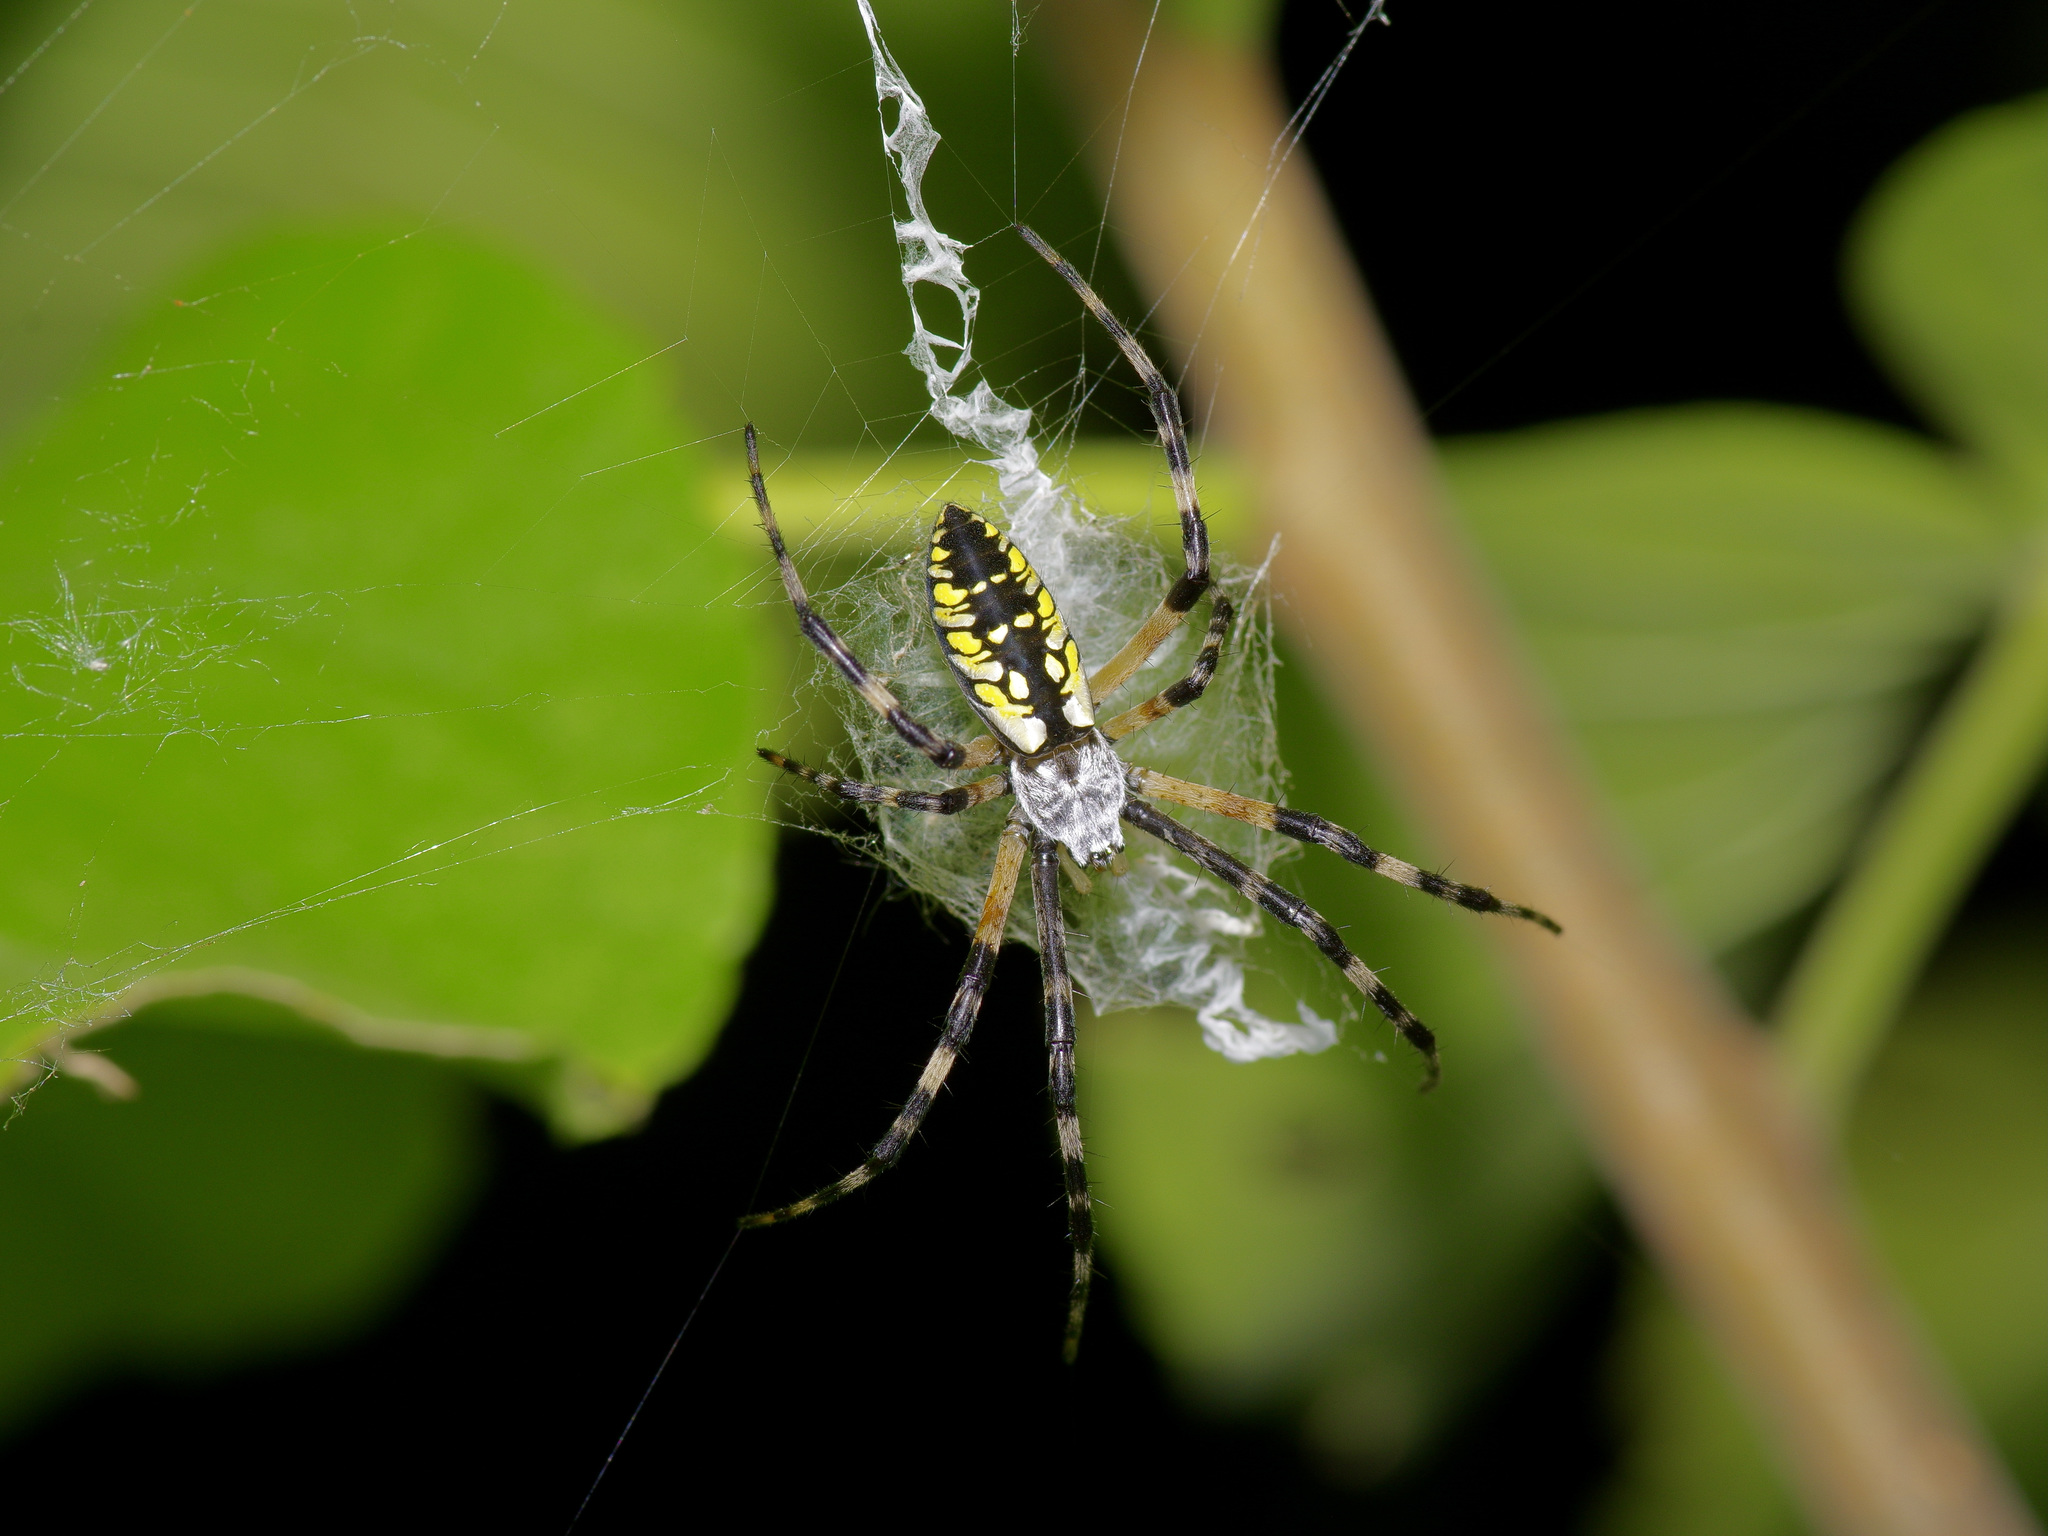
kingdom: Animalia
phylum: Arthropoda
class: Arachnida
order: Araneae
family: Araneidae
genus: Argiope
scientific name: Argiope aurantia
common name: Orb weavers
